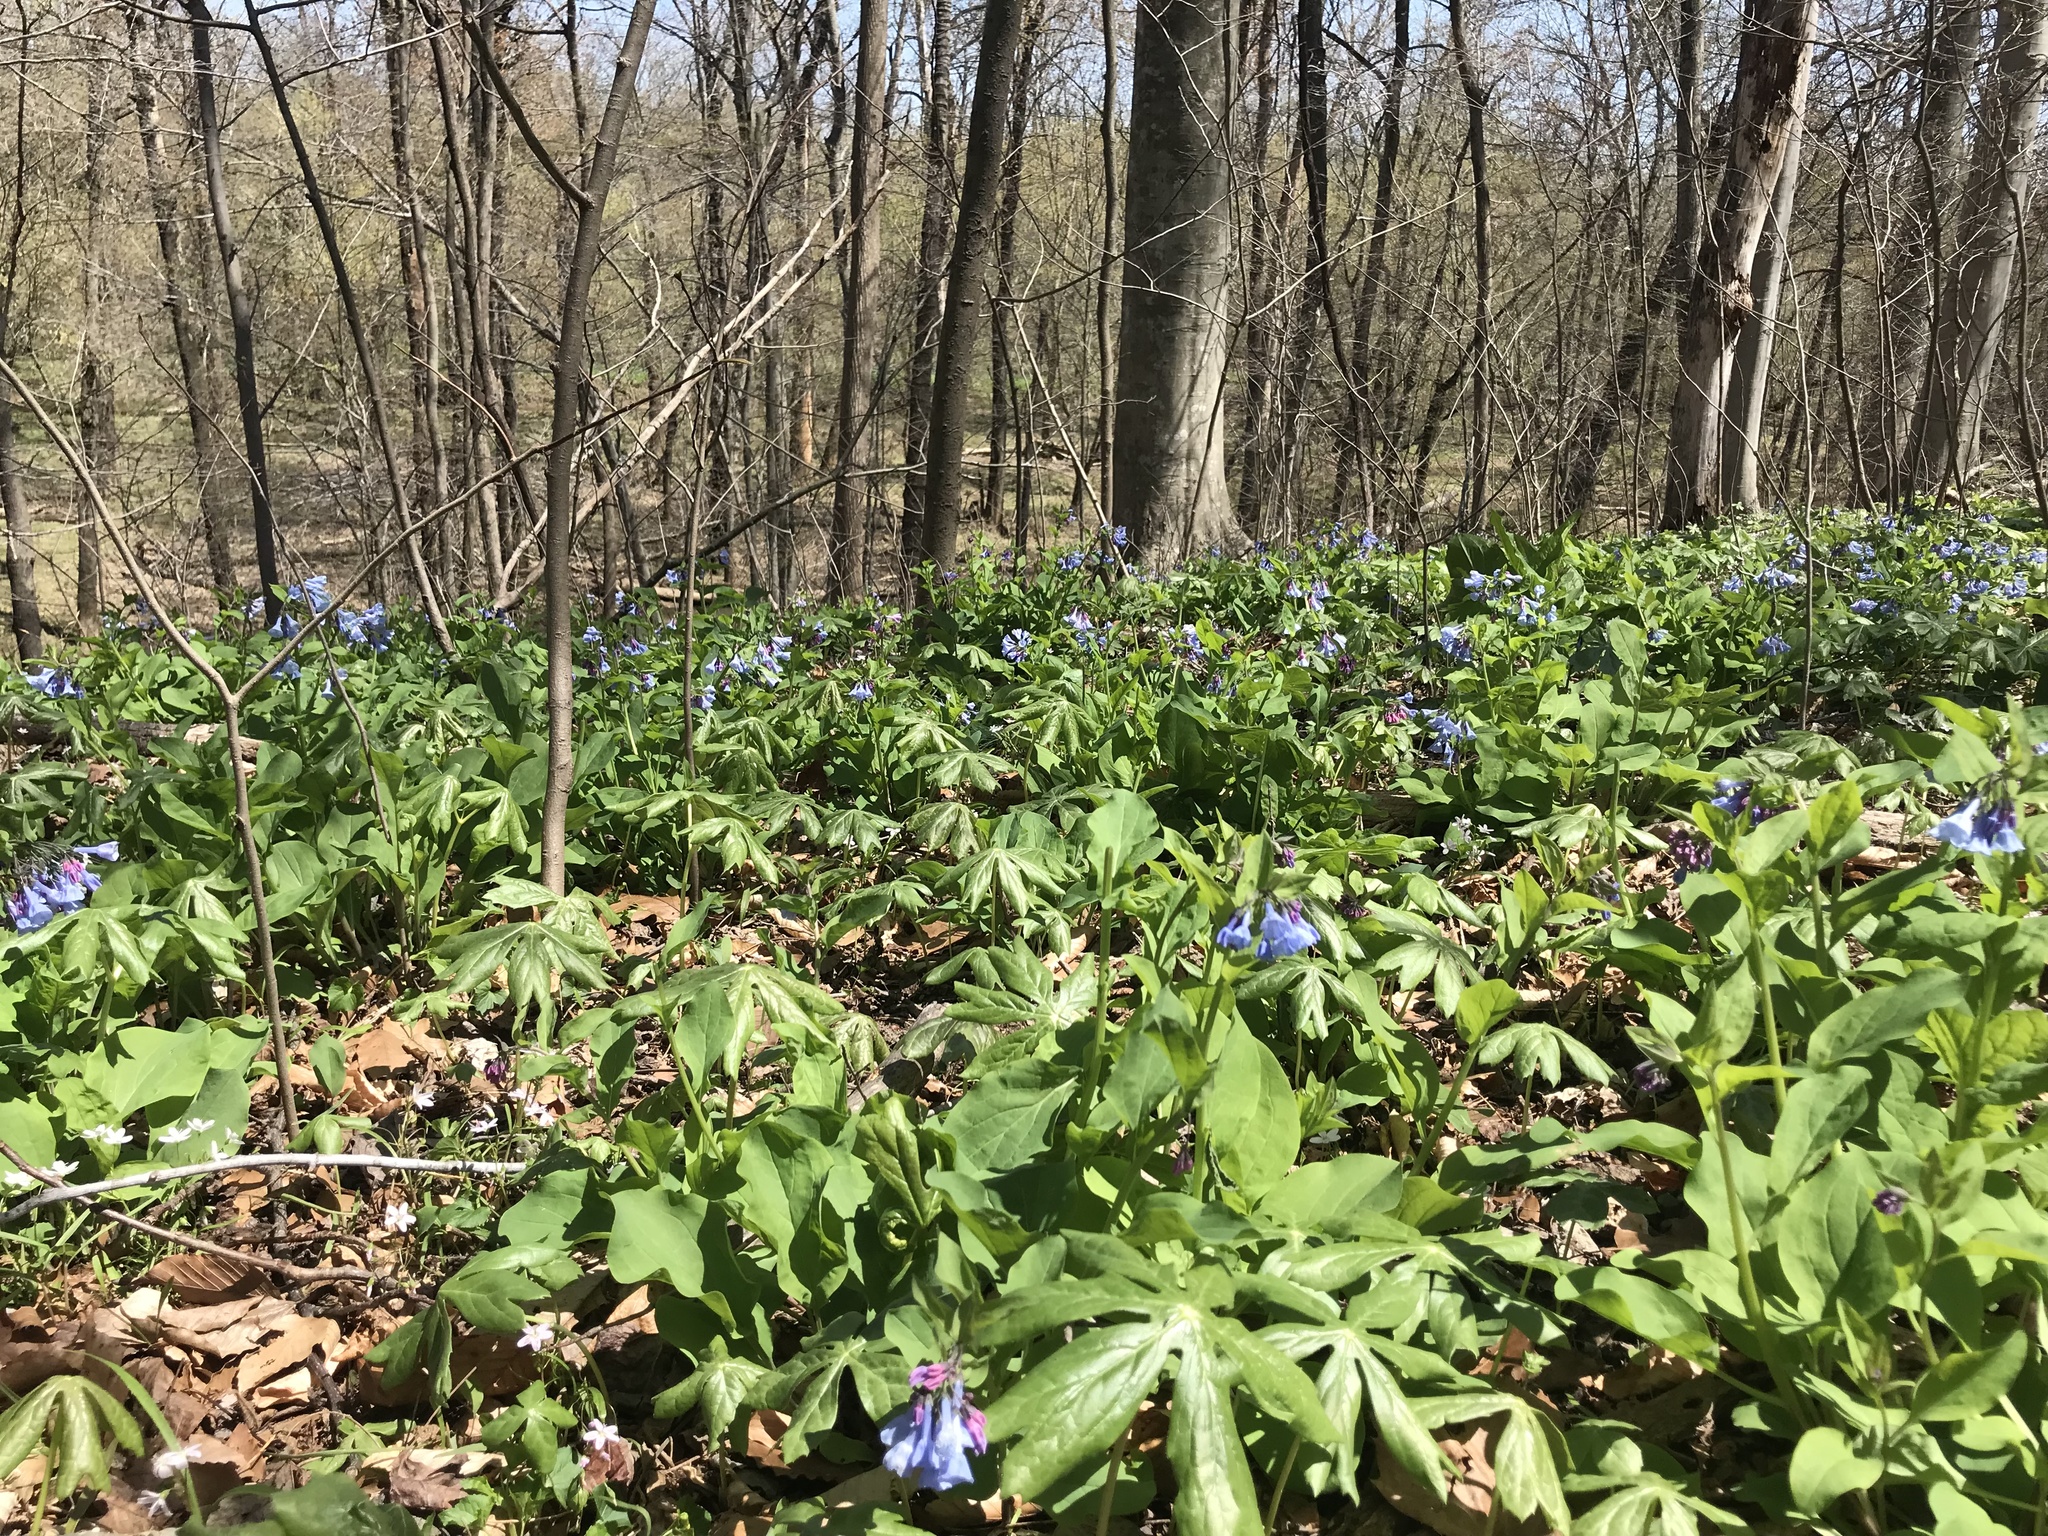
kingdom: Plantae
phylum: Tracheophyta
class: Magnoliopsida
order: Boraginales
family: Boraginaceae
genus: Mertensia
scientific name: Mertensia virginica
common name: Virginia bluebells
